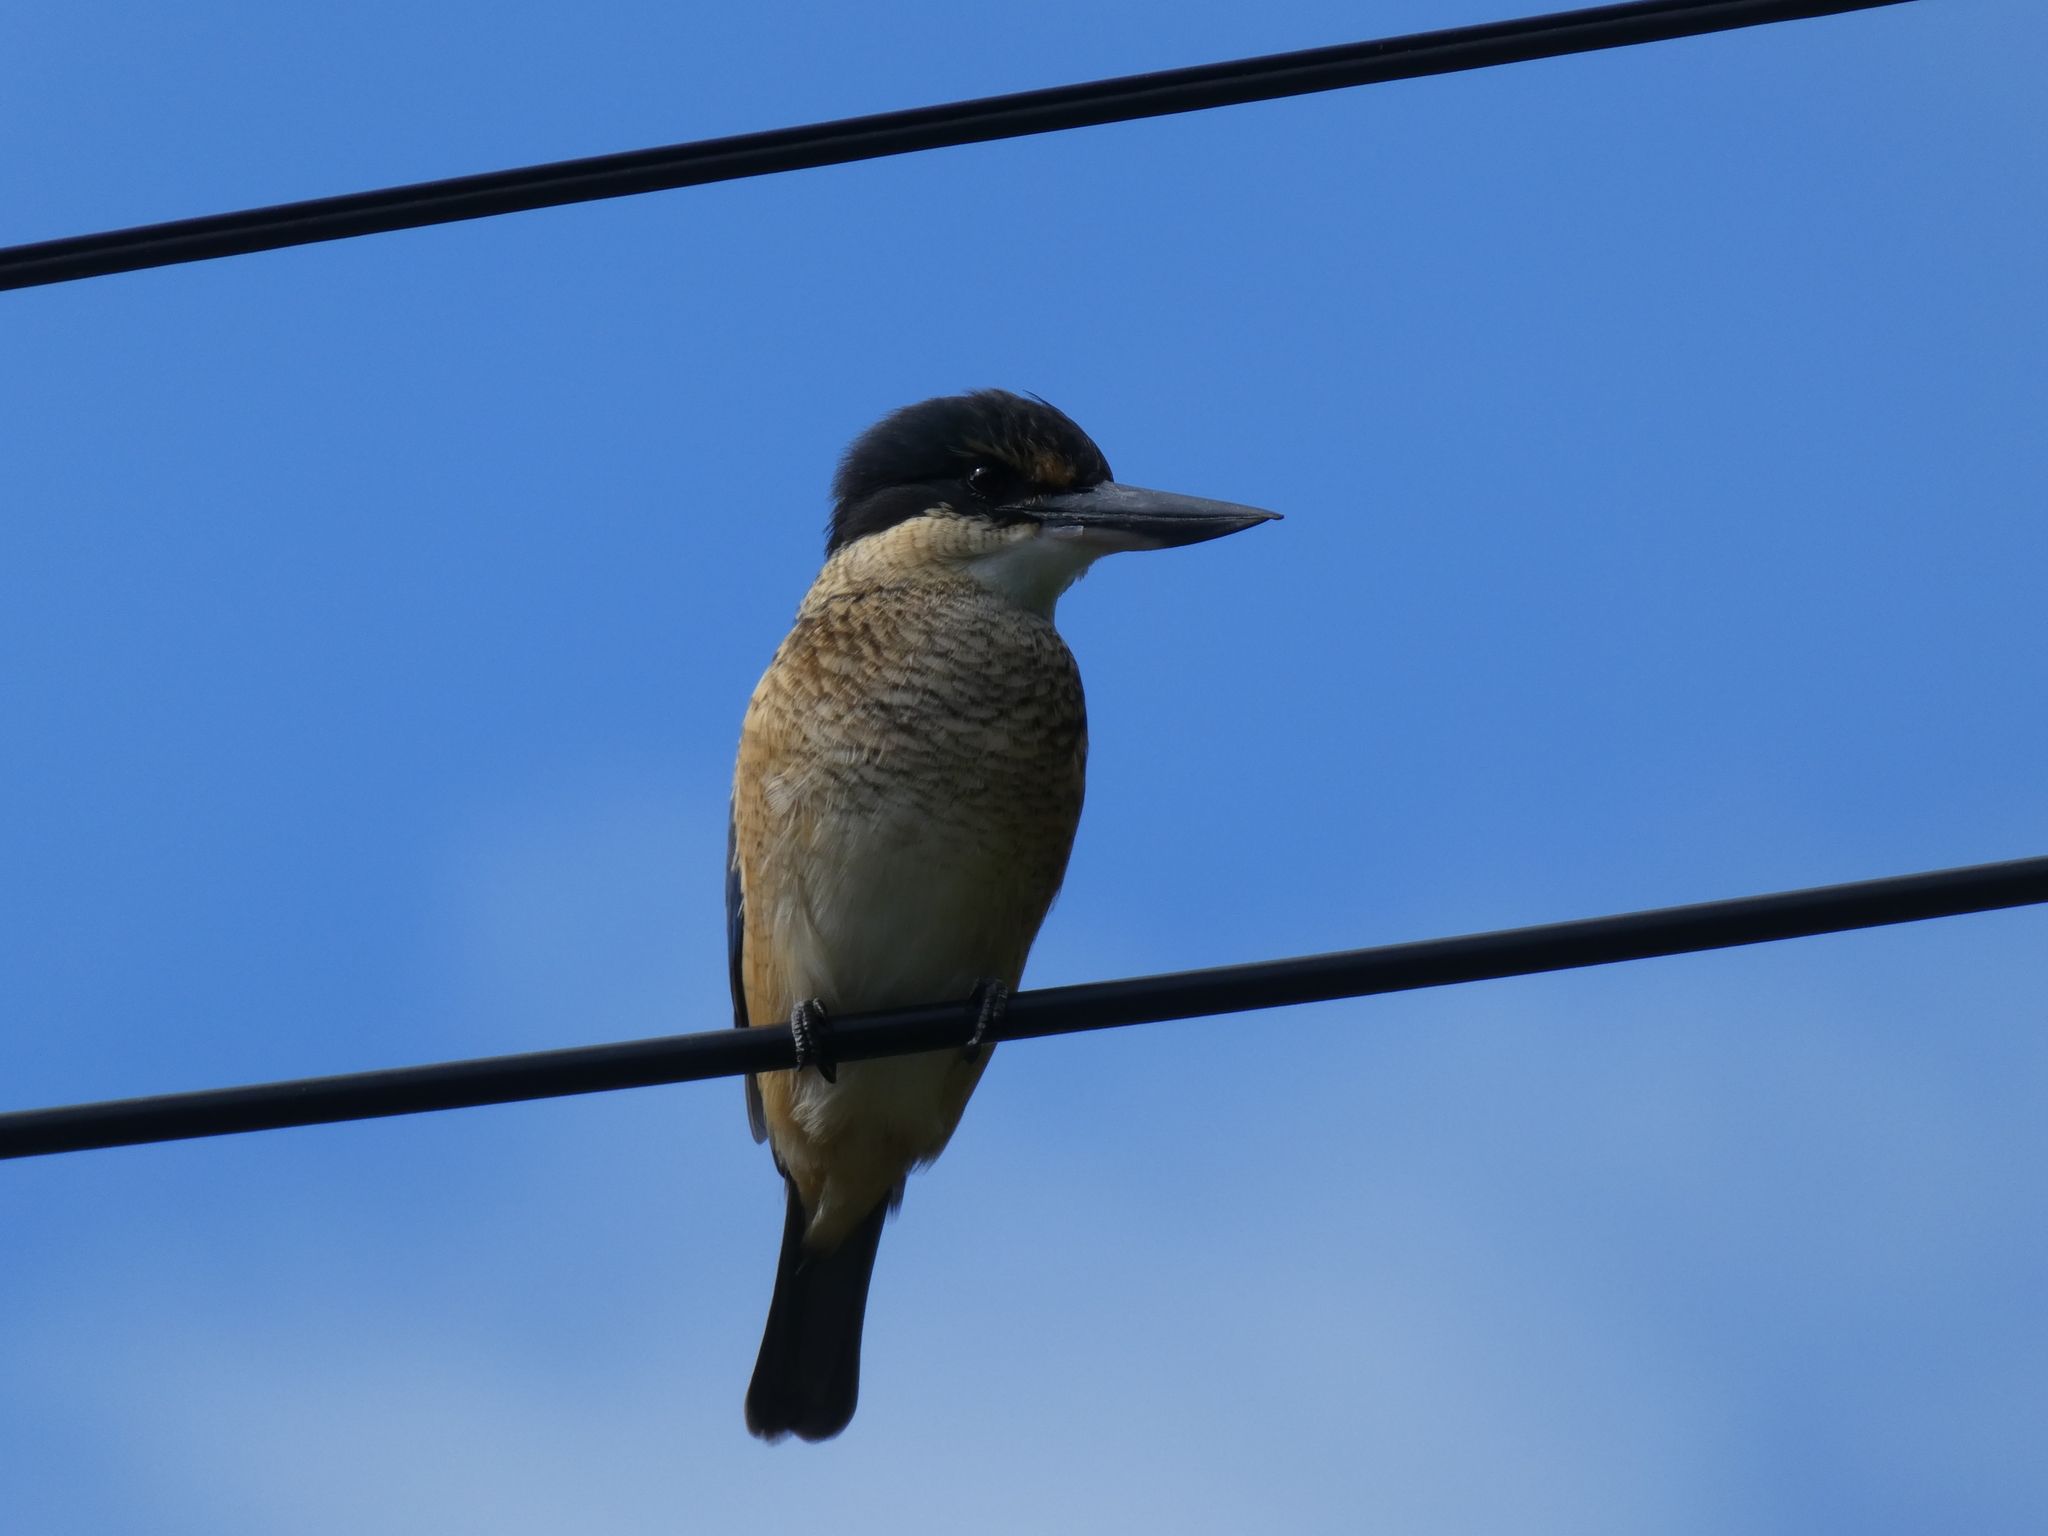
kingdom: Animalia
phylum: Chordata
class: Aves
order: Coraciiformes
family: Alcedinidae
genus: Todiramphus
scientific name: Todiramphus sanctus
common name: Sacred kingfisher
